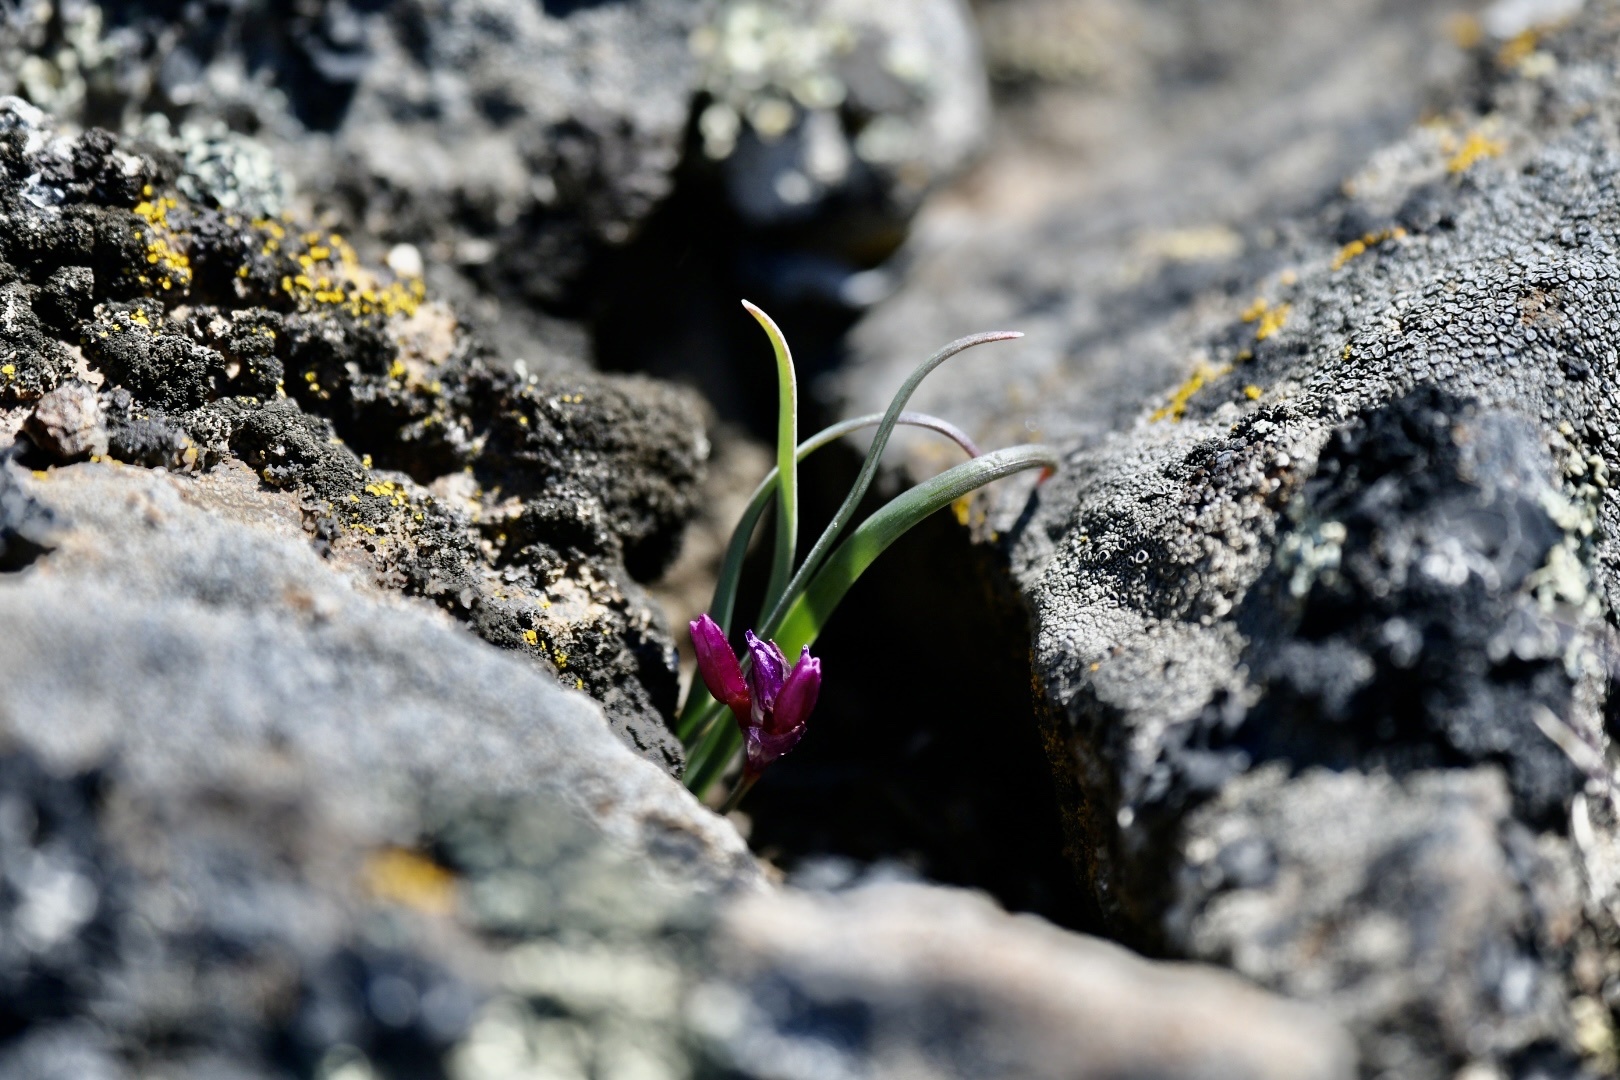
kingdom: Plantae
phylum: Tracheophyta
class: Liliopsida
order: Asparagales
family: Amaryllidaceae
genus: Allium
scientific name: Allium scilloides
